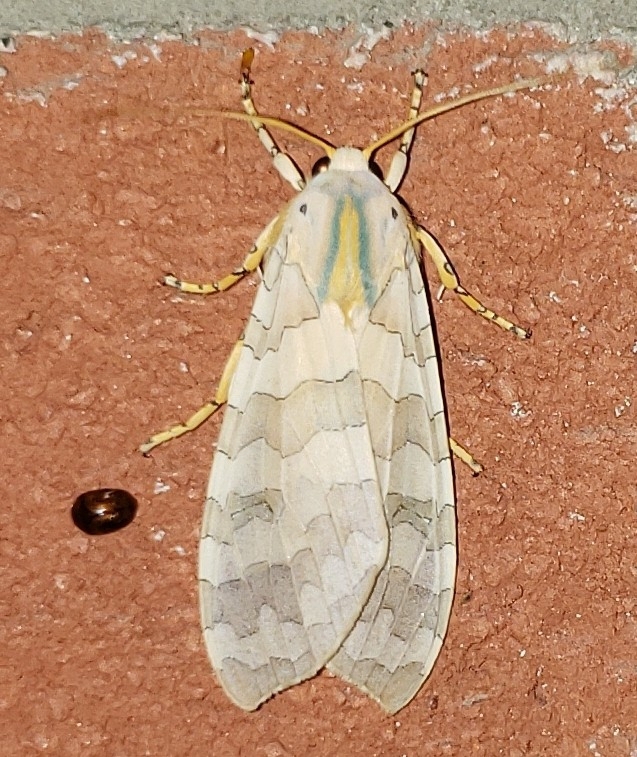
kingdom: Animalia
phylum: Arthropoda
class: Insecta
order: Lepidoptera
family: Erebidae
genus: Halysidota
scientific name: Halysidota
